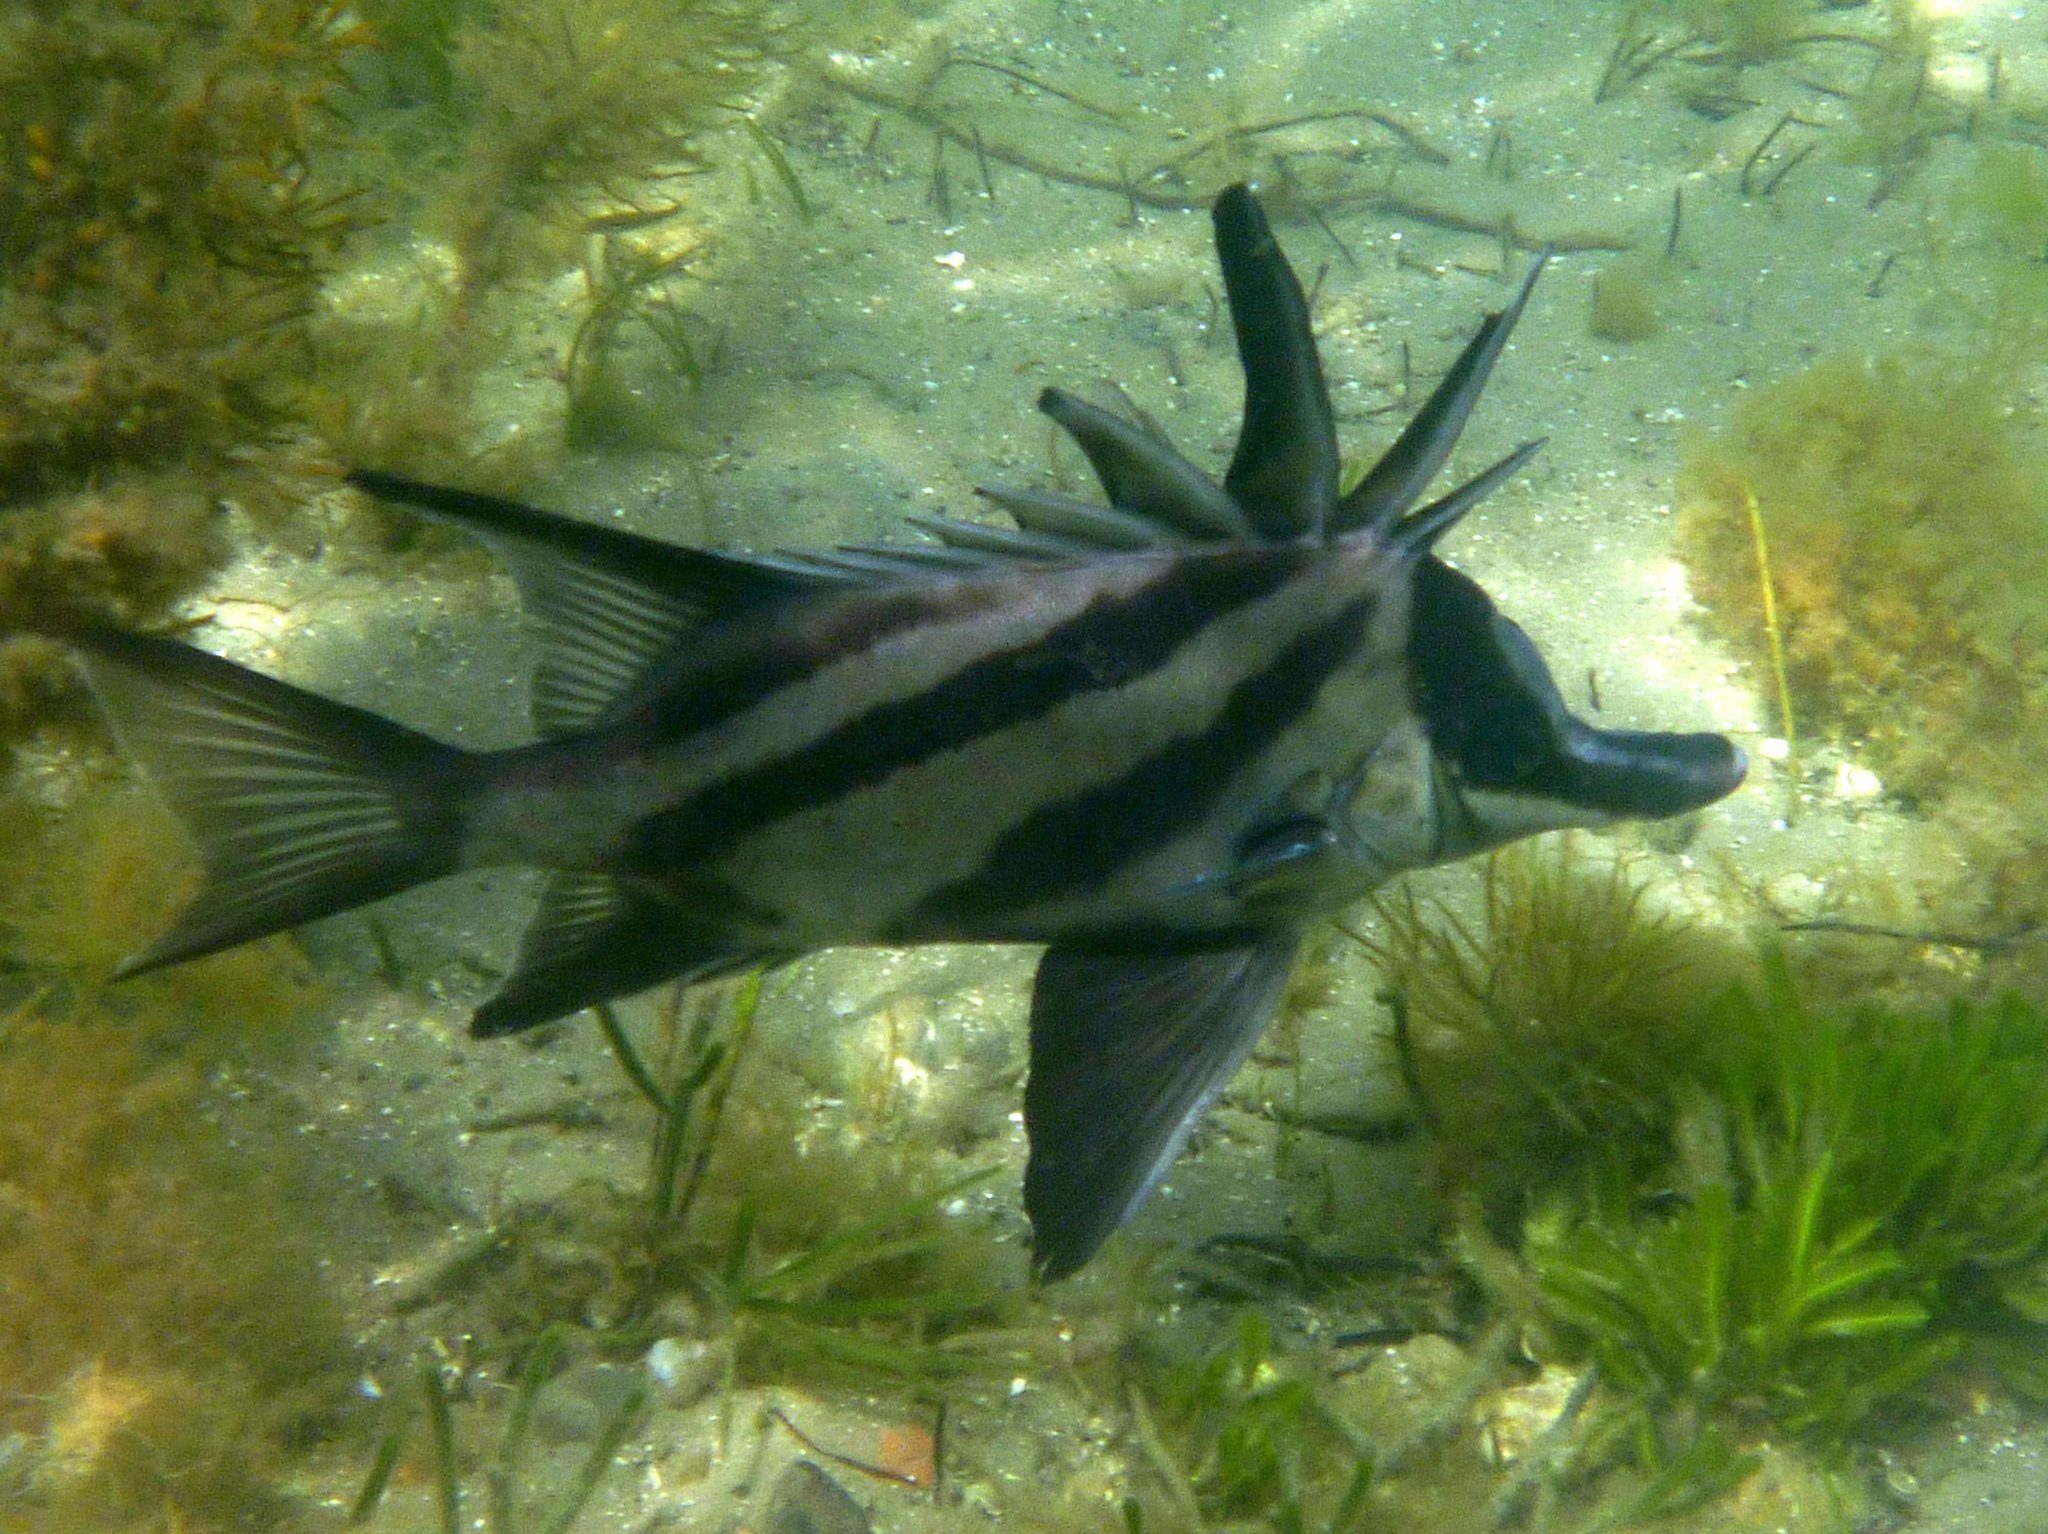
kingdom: Animalia
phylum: Chordata
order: Perciformes
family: Pentacerotidae
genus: Pentaceropsis
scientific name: Pentaceropsis recurvirostris
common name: Longsnout boarfish
